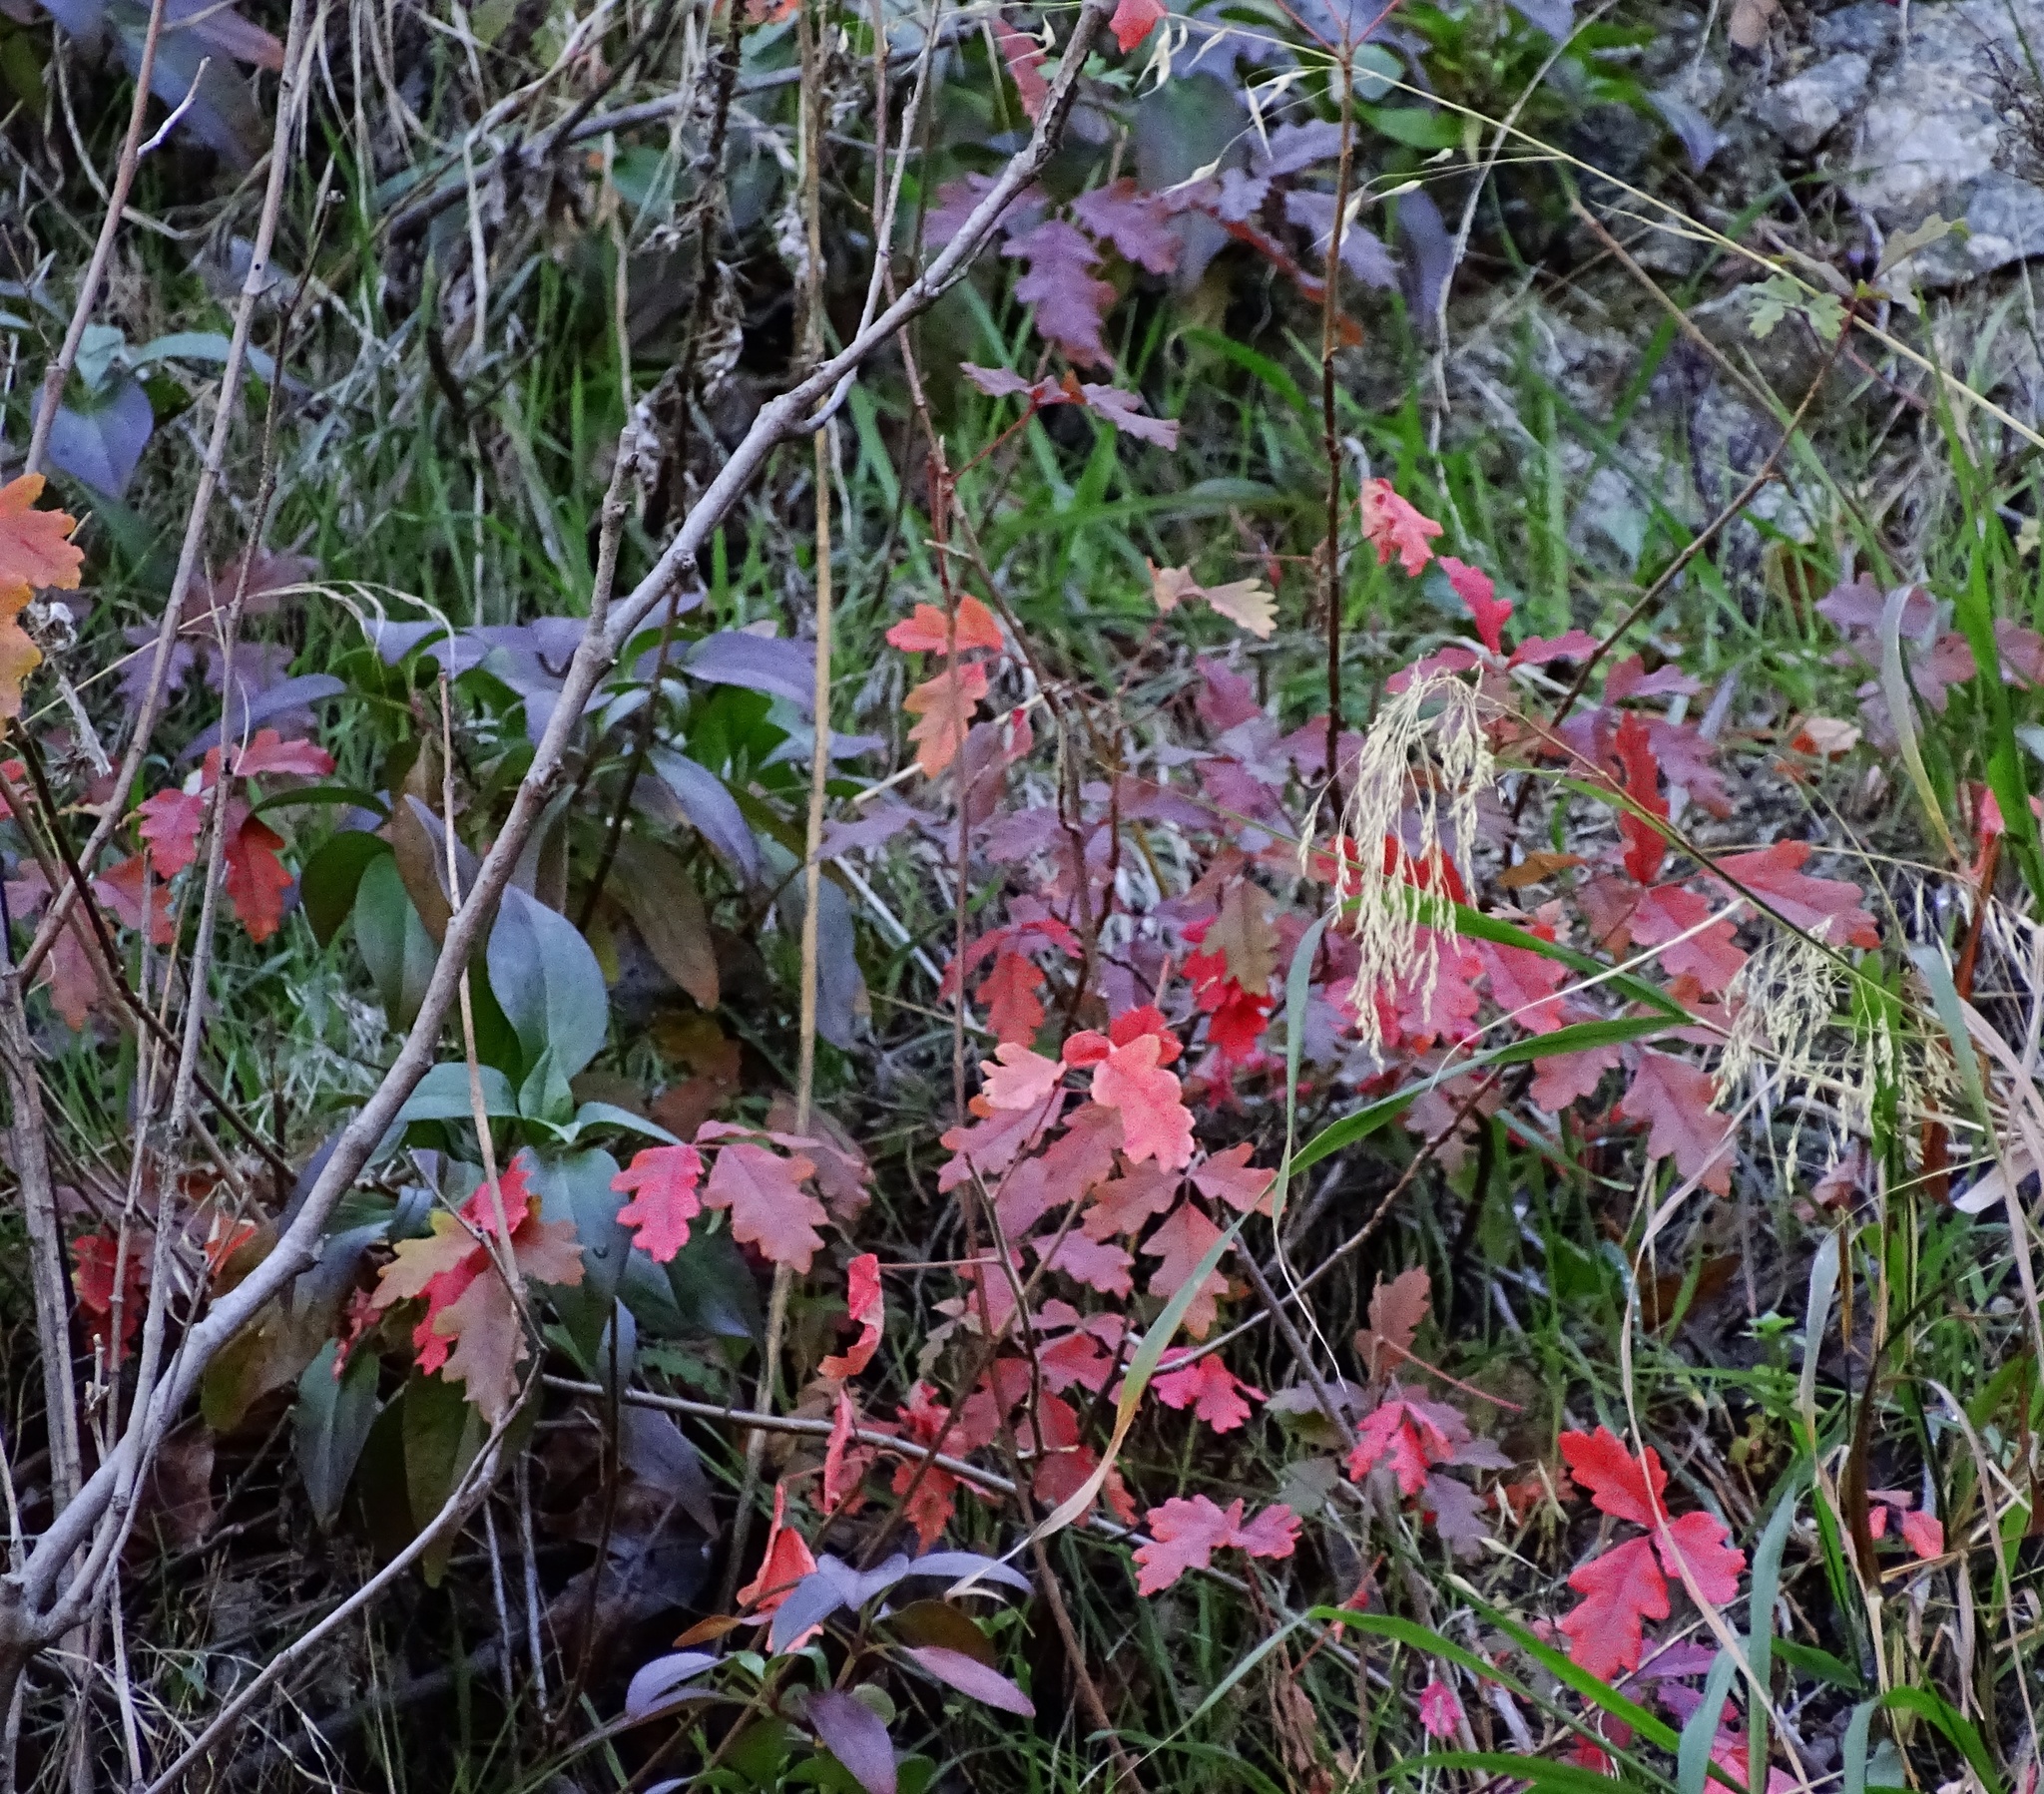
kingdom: Plantae
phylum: Tracheophyta
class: Magnoliopsida
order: Sapindales
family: Anacardiaceae
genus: Toxicodendron
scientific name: Toxicodendron diversilobum
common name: Pacific poison-oak
